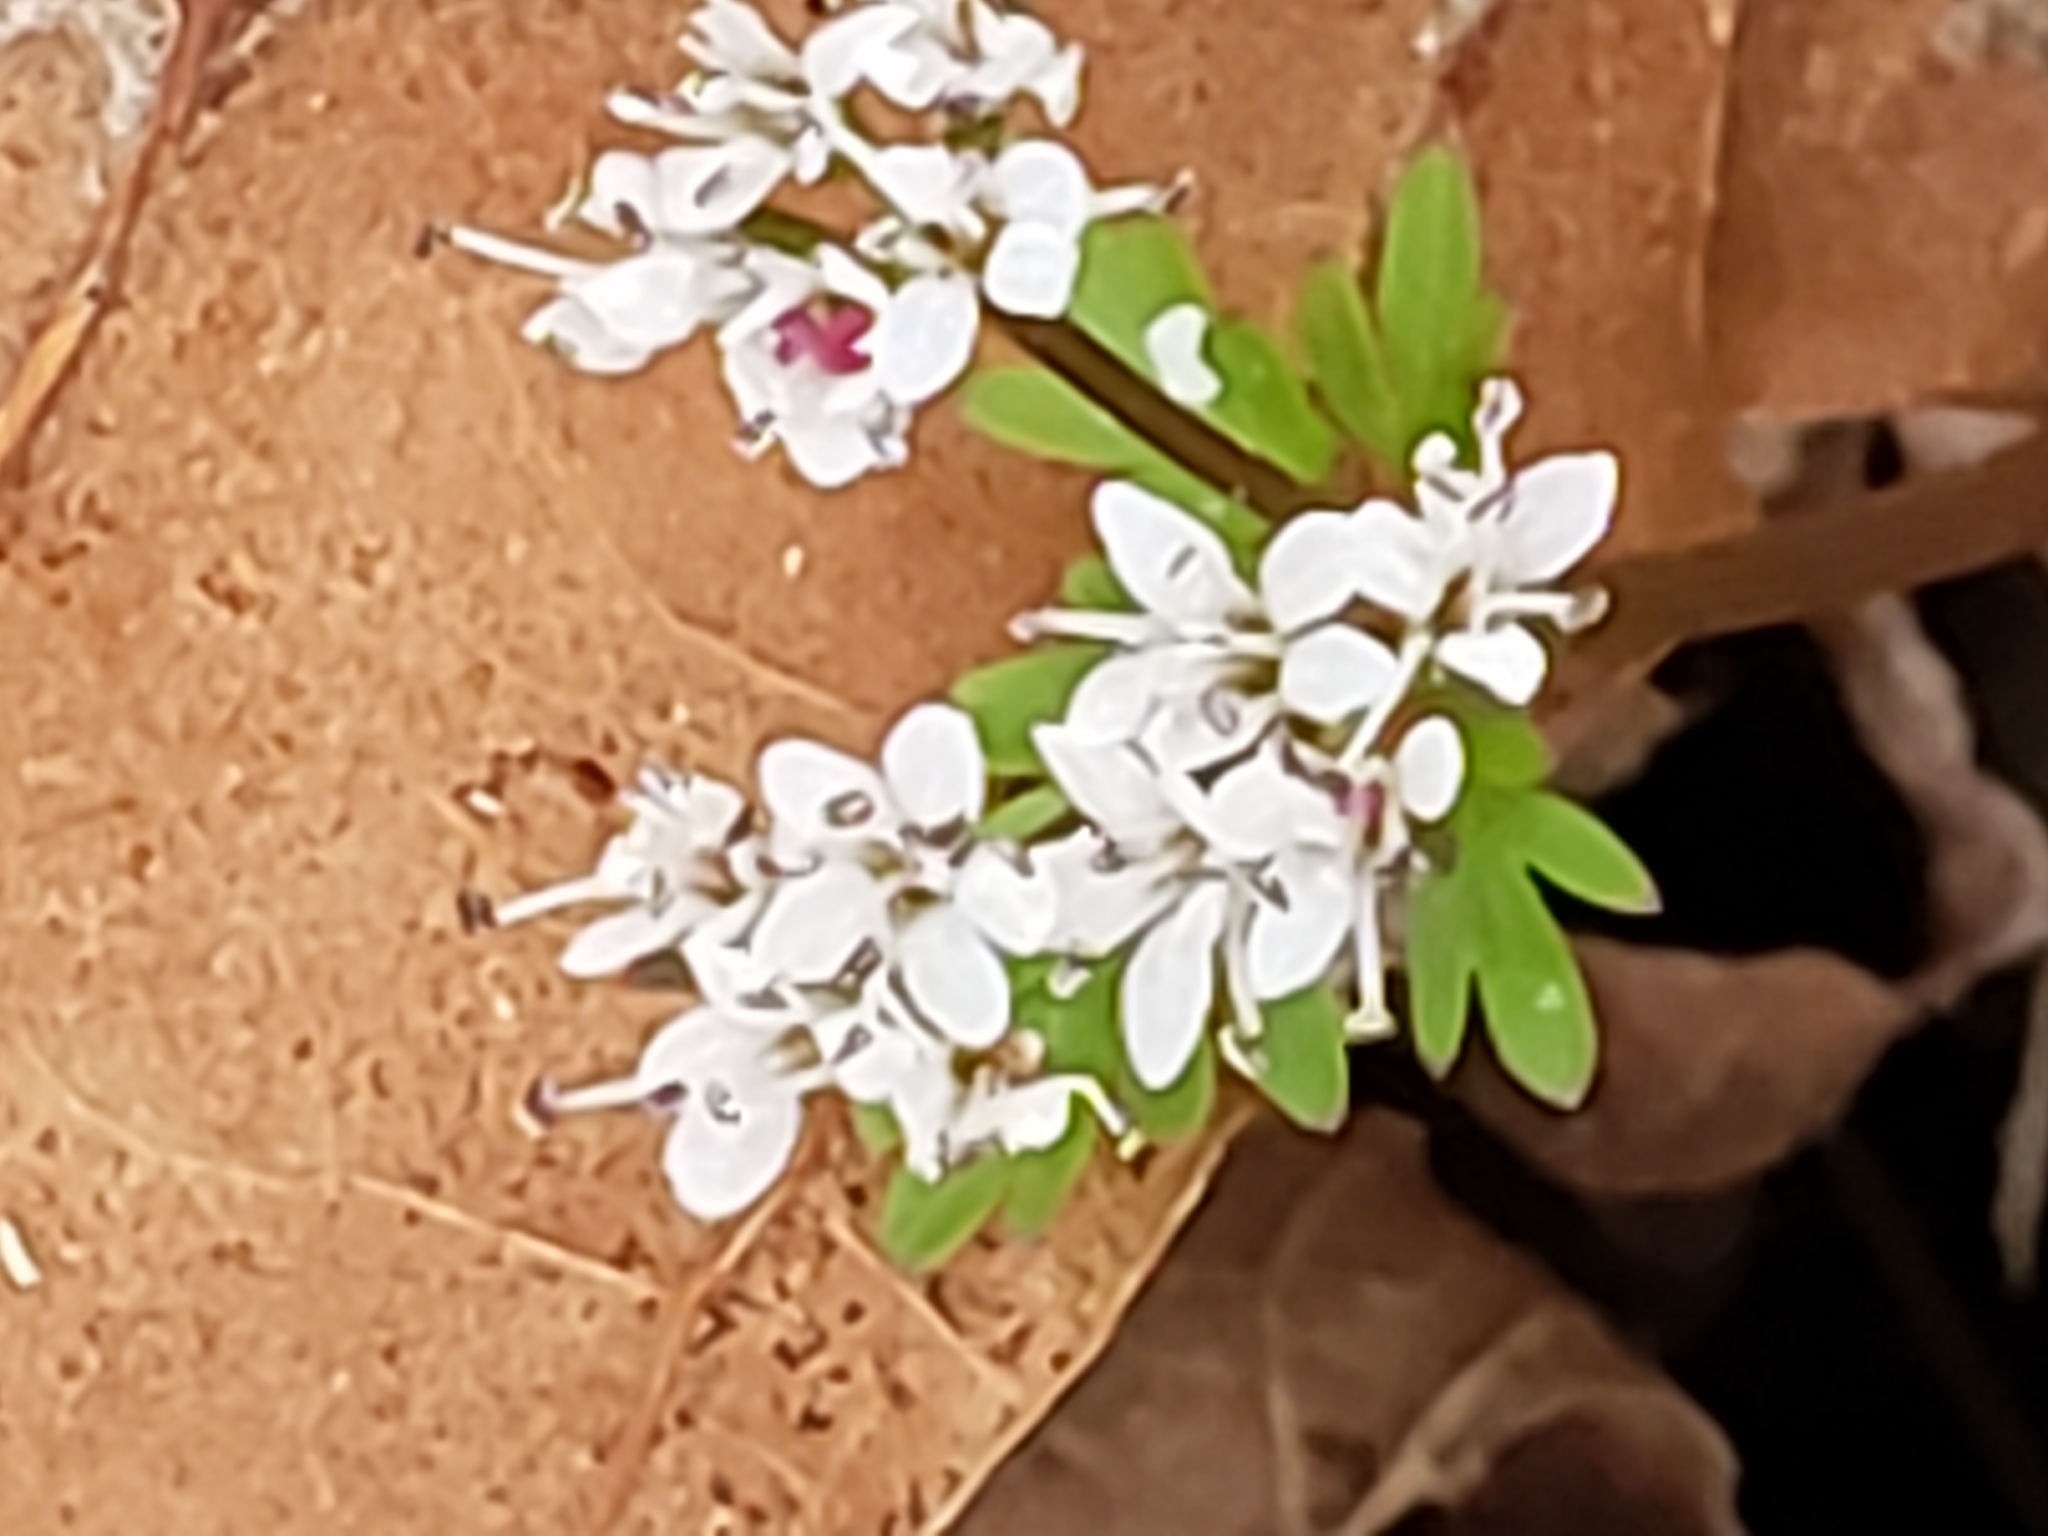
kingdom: Plantae
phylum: Tracheophyta
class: Magnoliopsida
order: Apiales
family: Apiaceae
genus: Erigenia
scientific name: Erigenia bulbosa
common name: Pepper-and-salt
